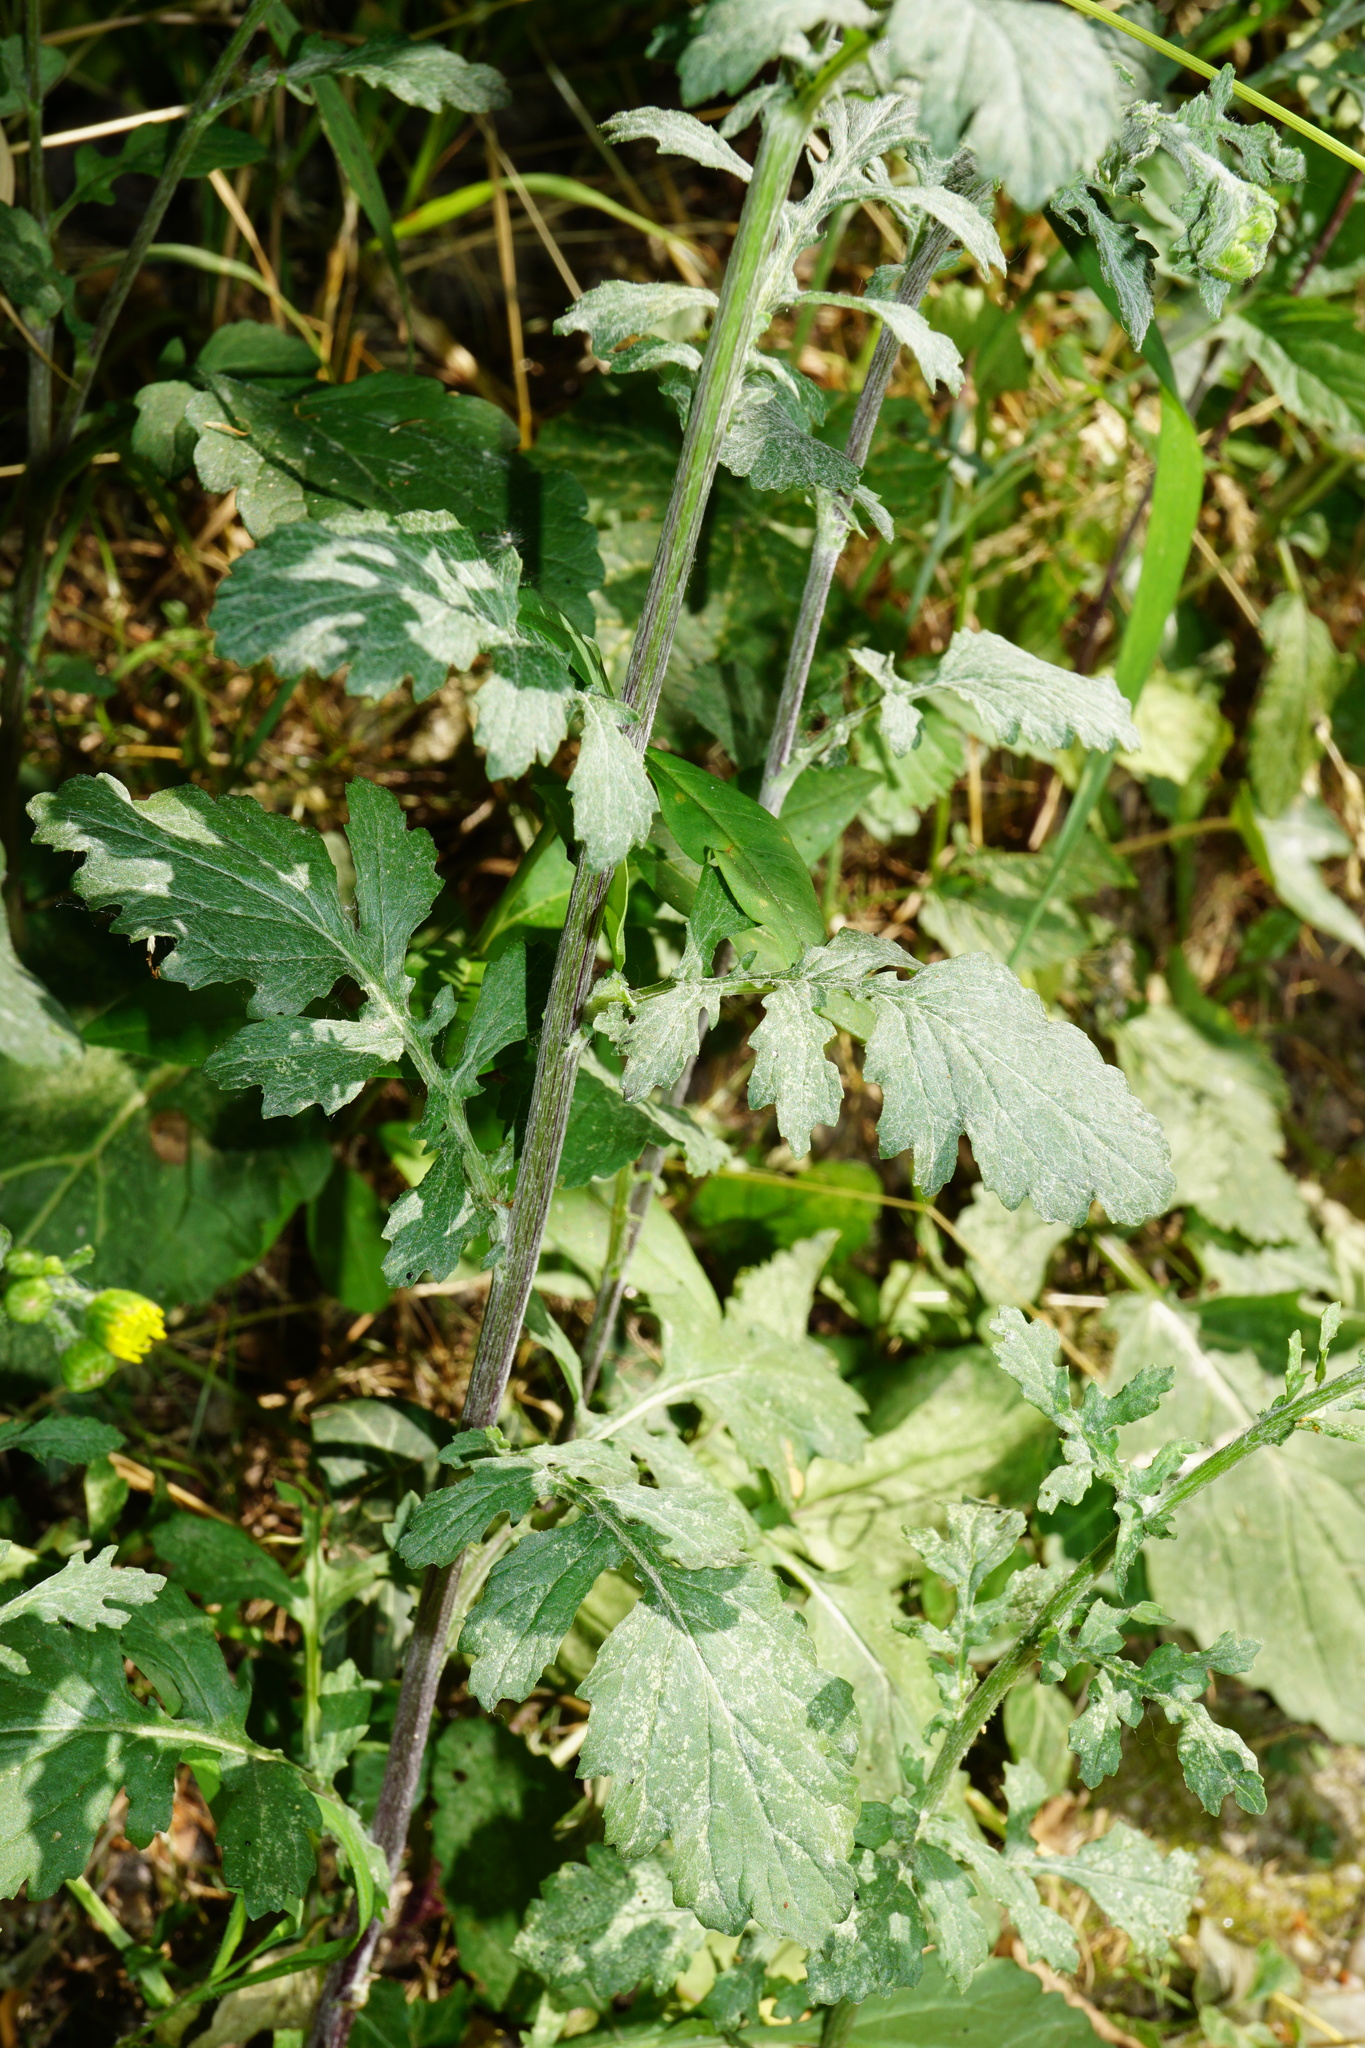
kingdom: Plantae
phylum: Tracheophyta
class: Magnoliopsida
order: Asterales
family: Asteraceae
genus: Jacobaea
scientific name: Jacobaea erratica
